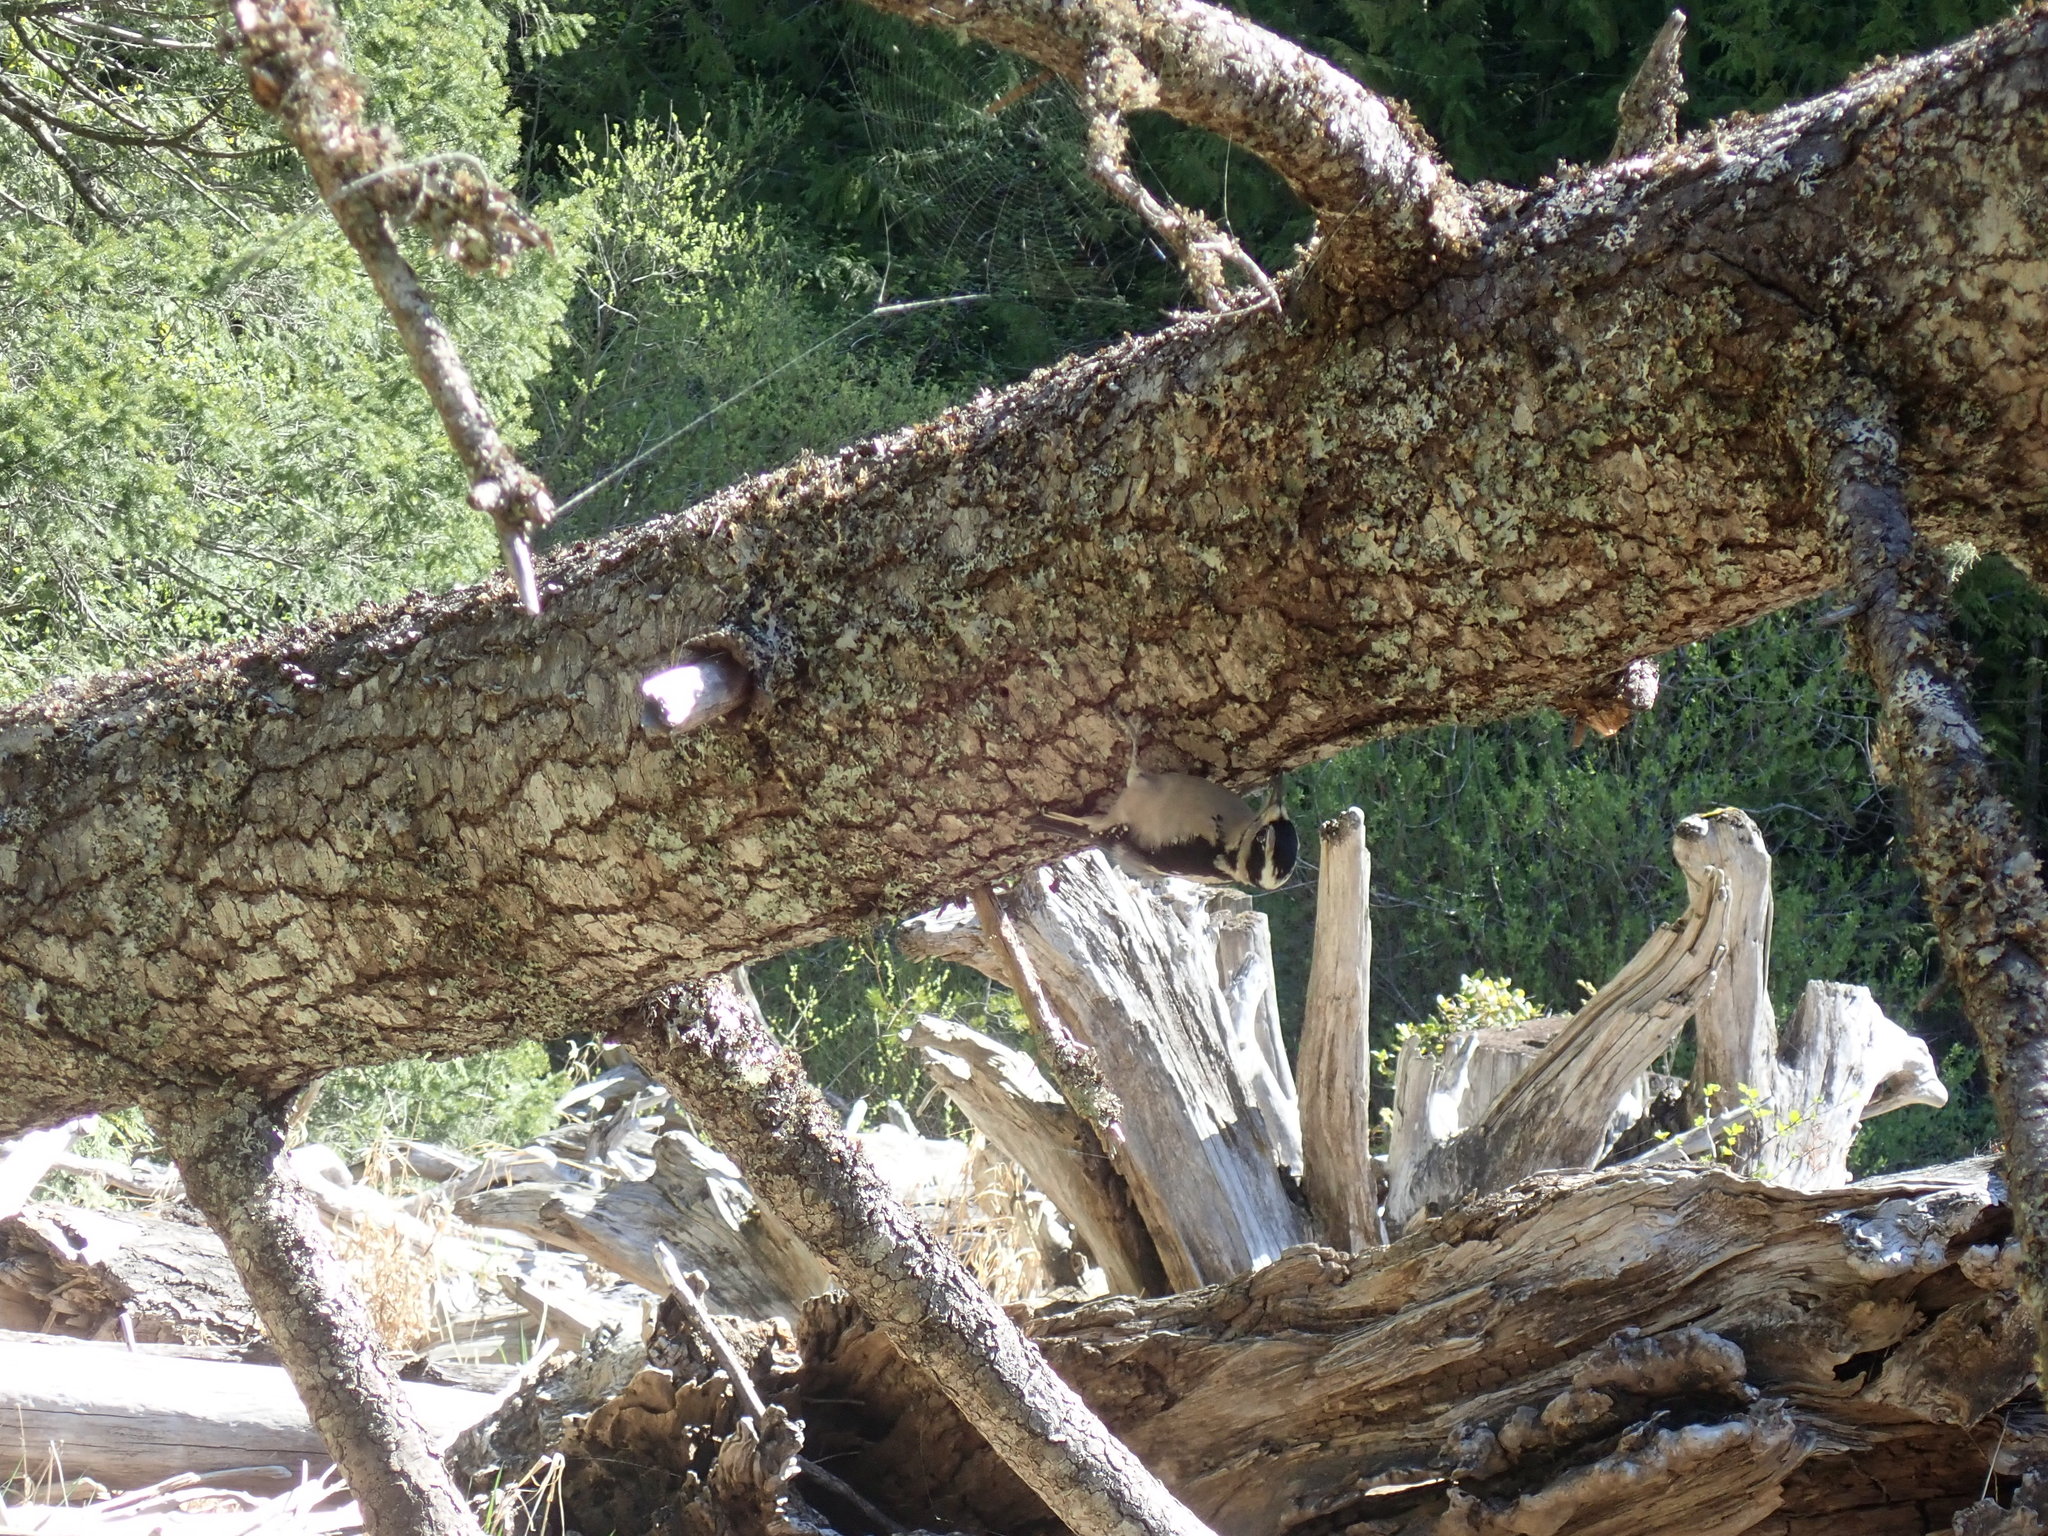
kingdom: Animalia
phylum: Chordata
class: Aves
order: Piciformes
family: Picidae
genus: Leuconotopicus
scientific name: Leuconotopicus villosus
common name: Hairy woodpecker
